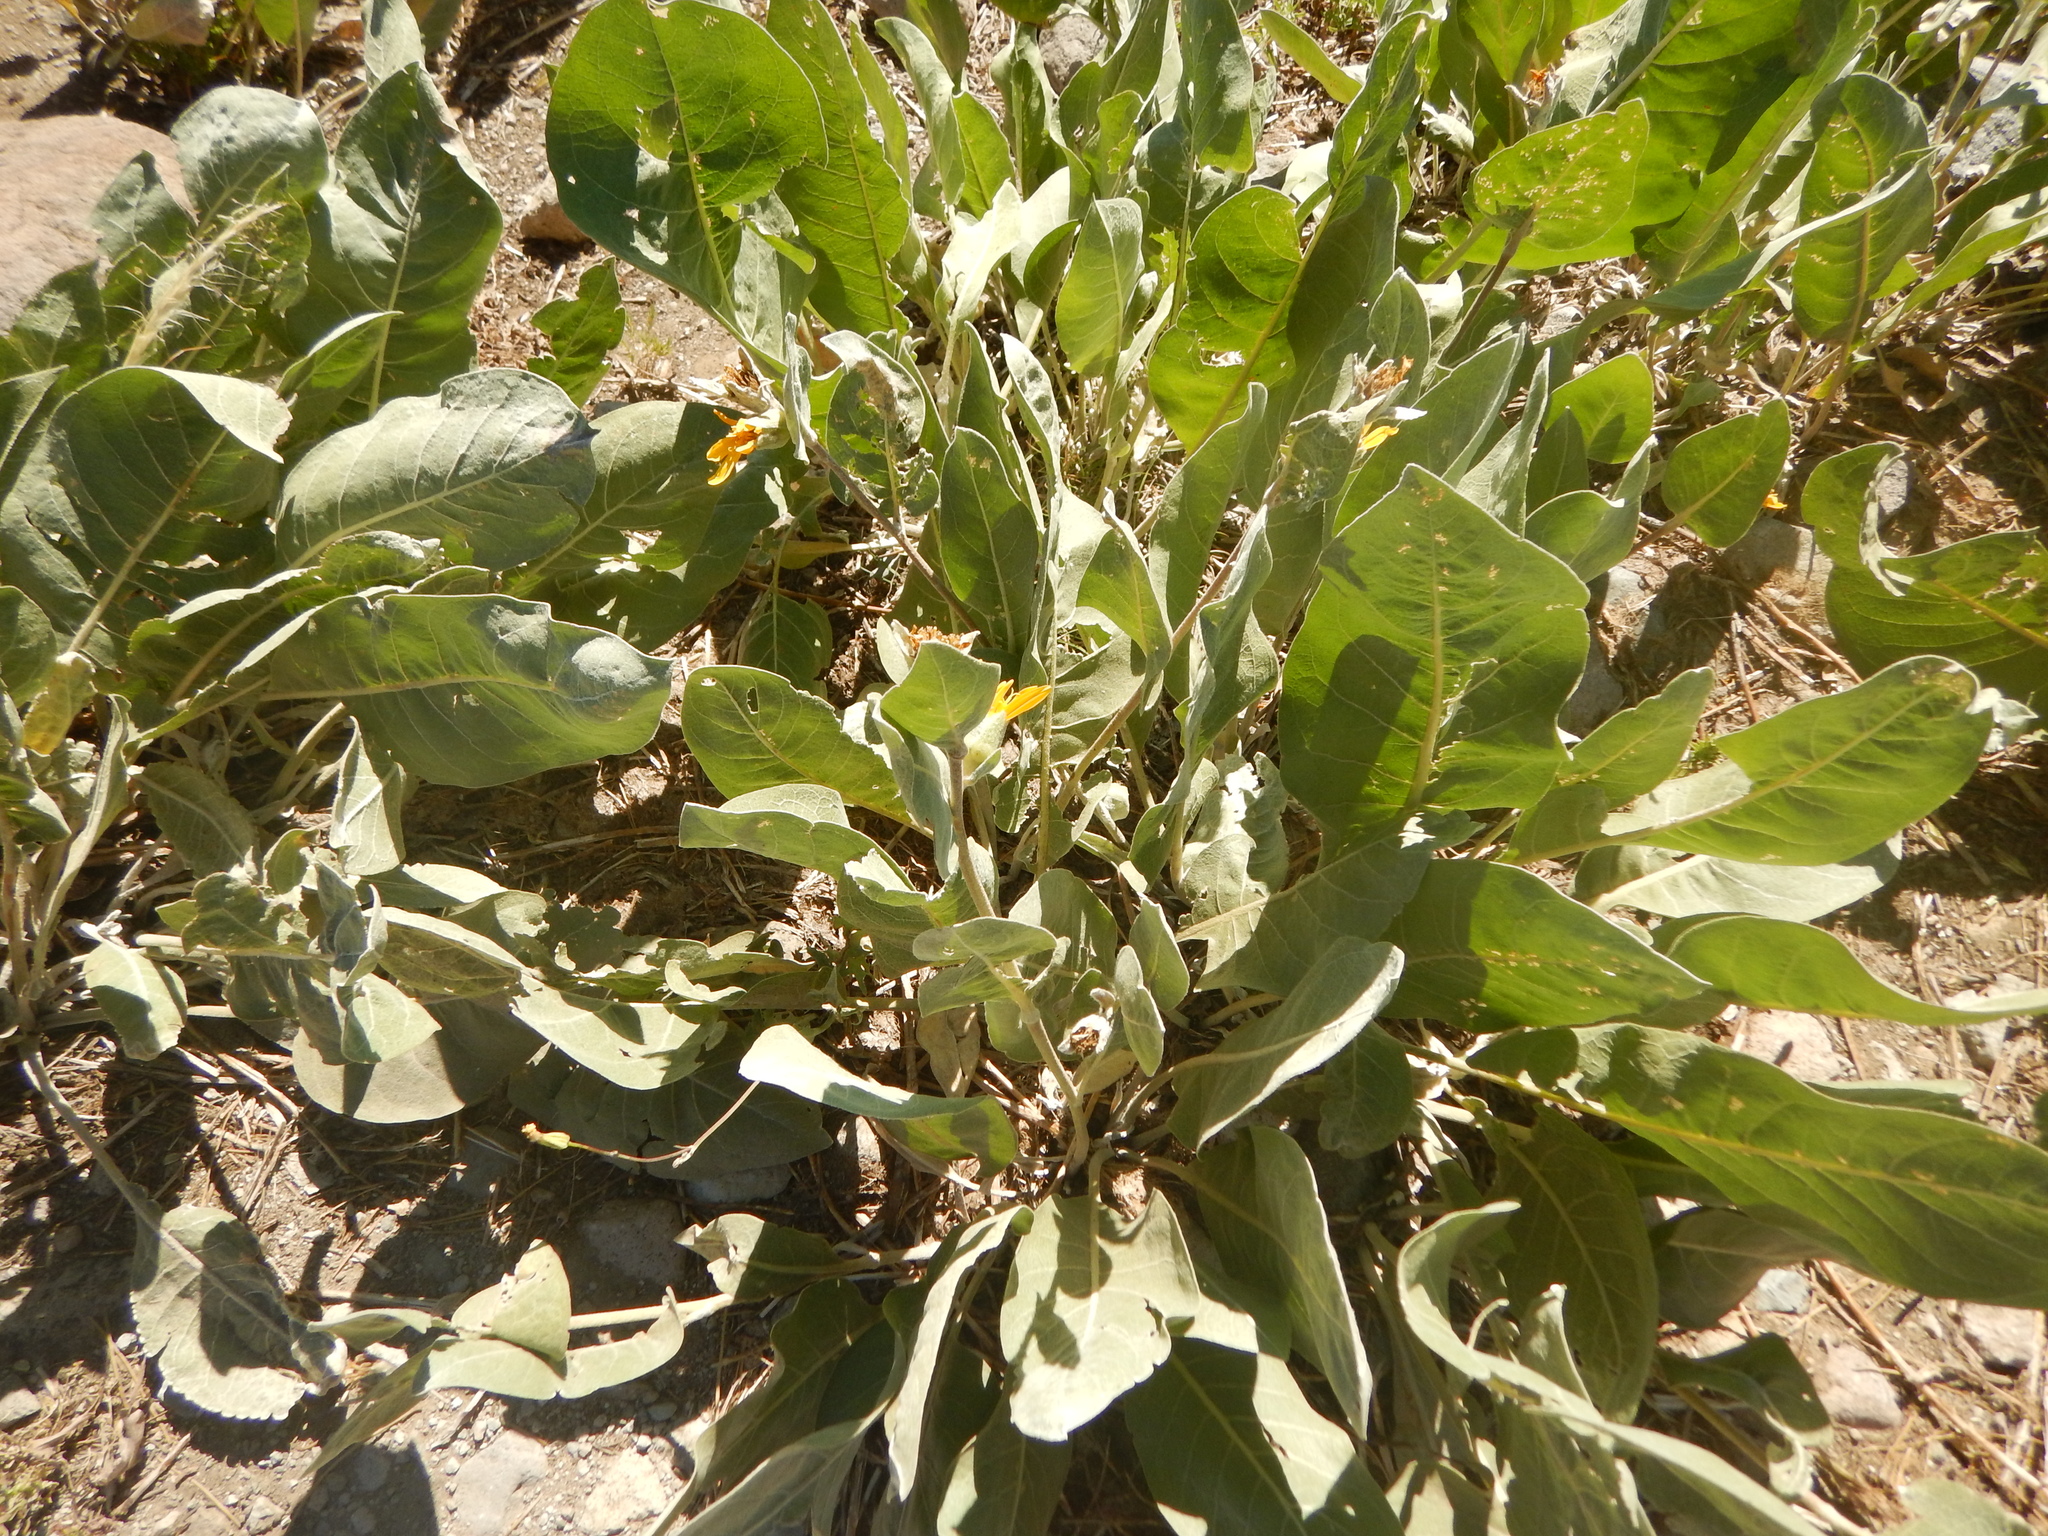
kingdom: Plantae
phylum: Tracheophyta
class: Magnoliopsida
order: Asterales
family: Asteraceae
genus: Wyethia
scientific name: Wyethia mollis
